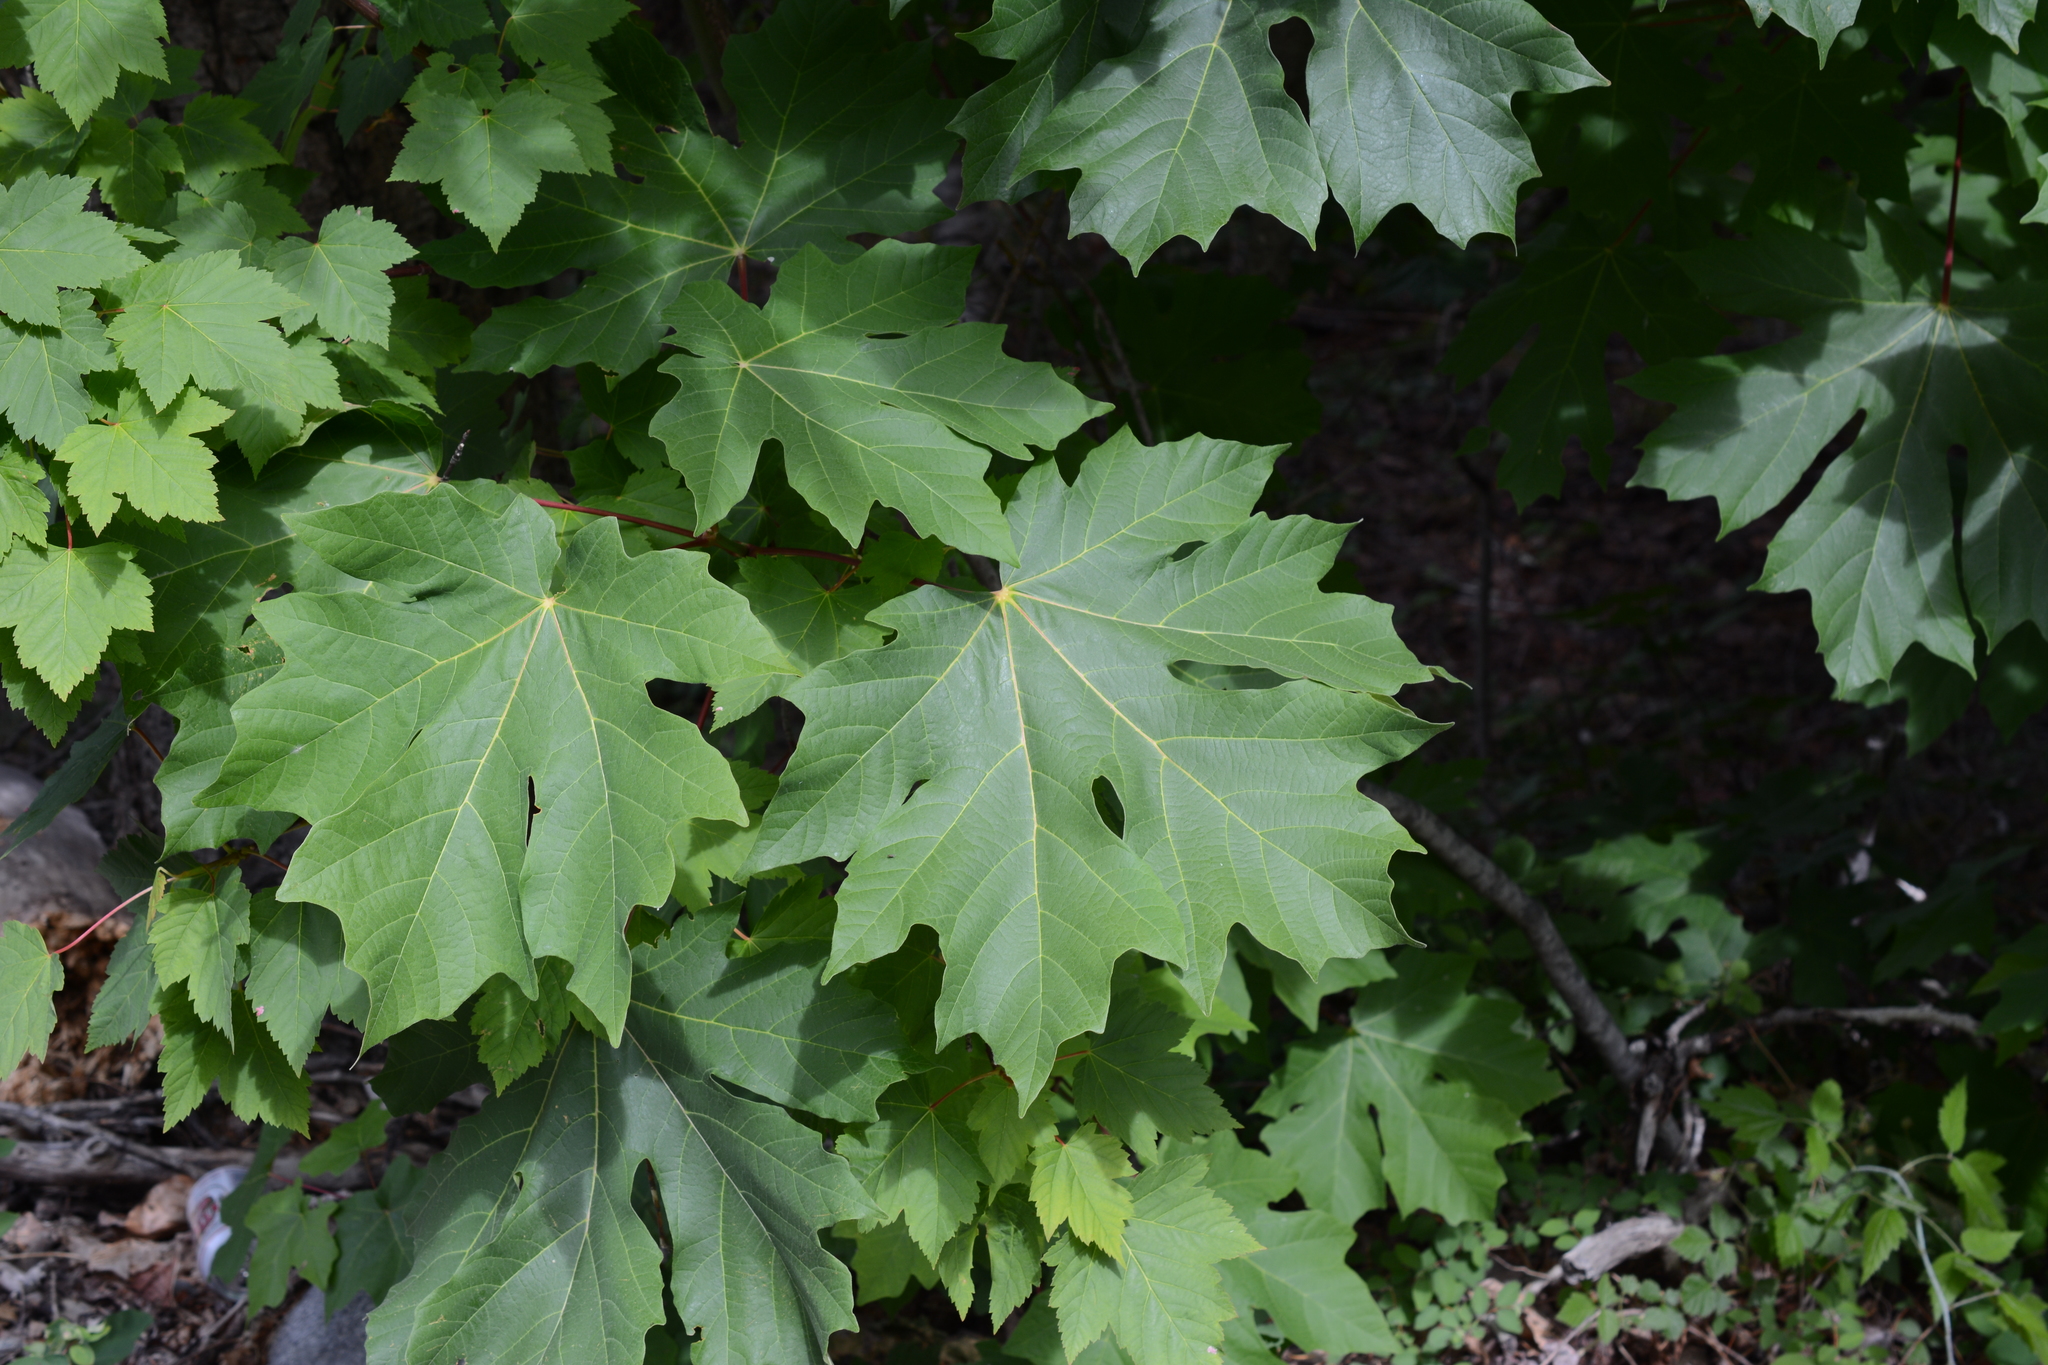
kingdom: Plantae
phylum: Tracheophyta
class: Magnoliopsida
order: Sapindales
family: Sapindaceae
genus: Acer
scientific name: Acer macrophyllum
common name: Oregon maple
